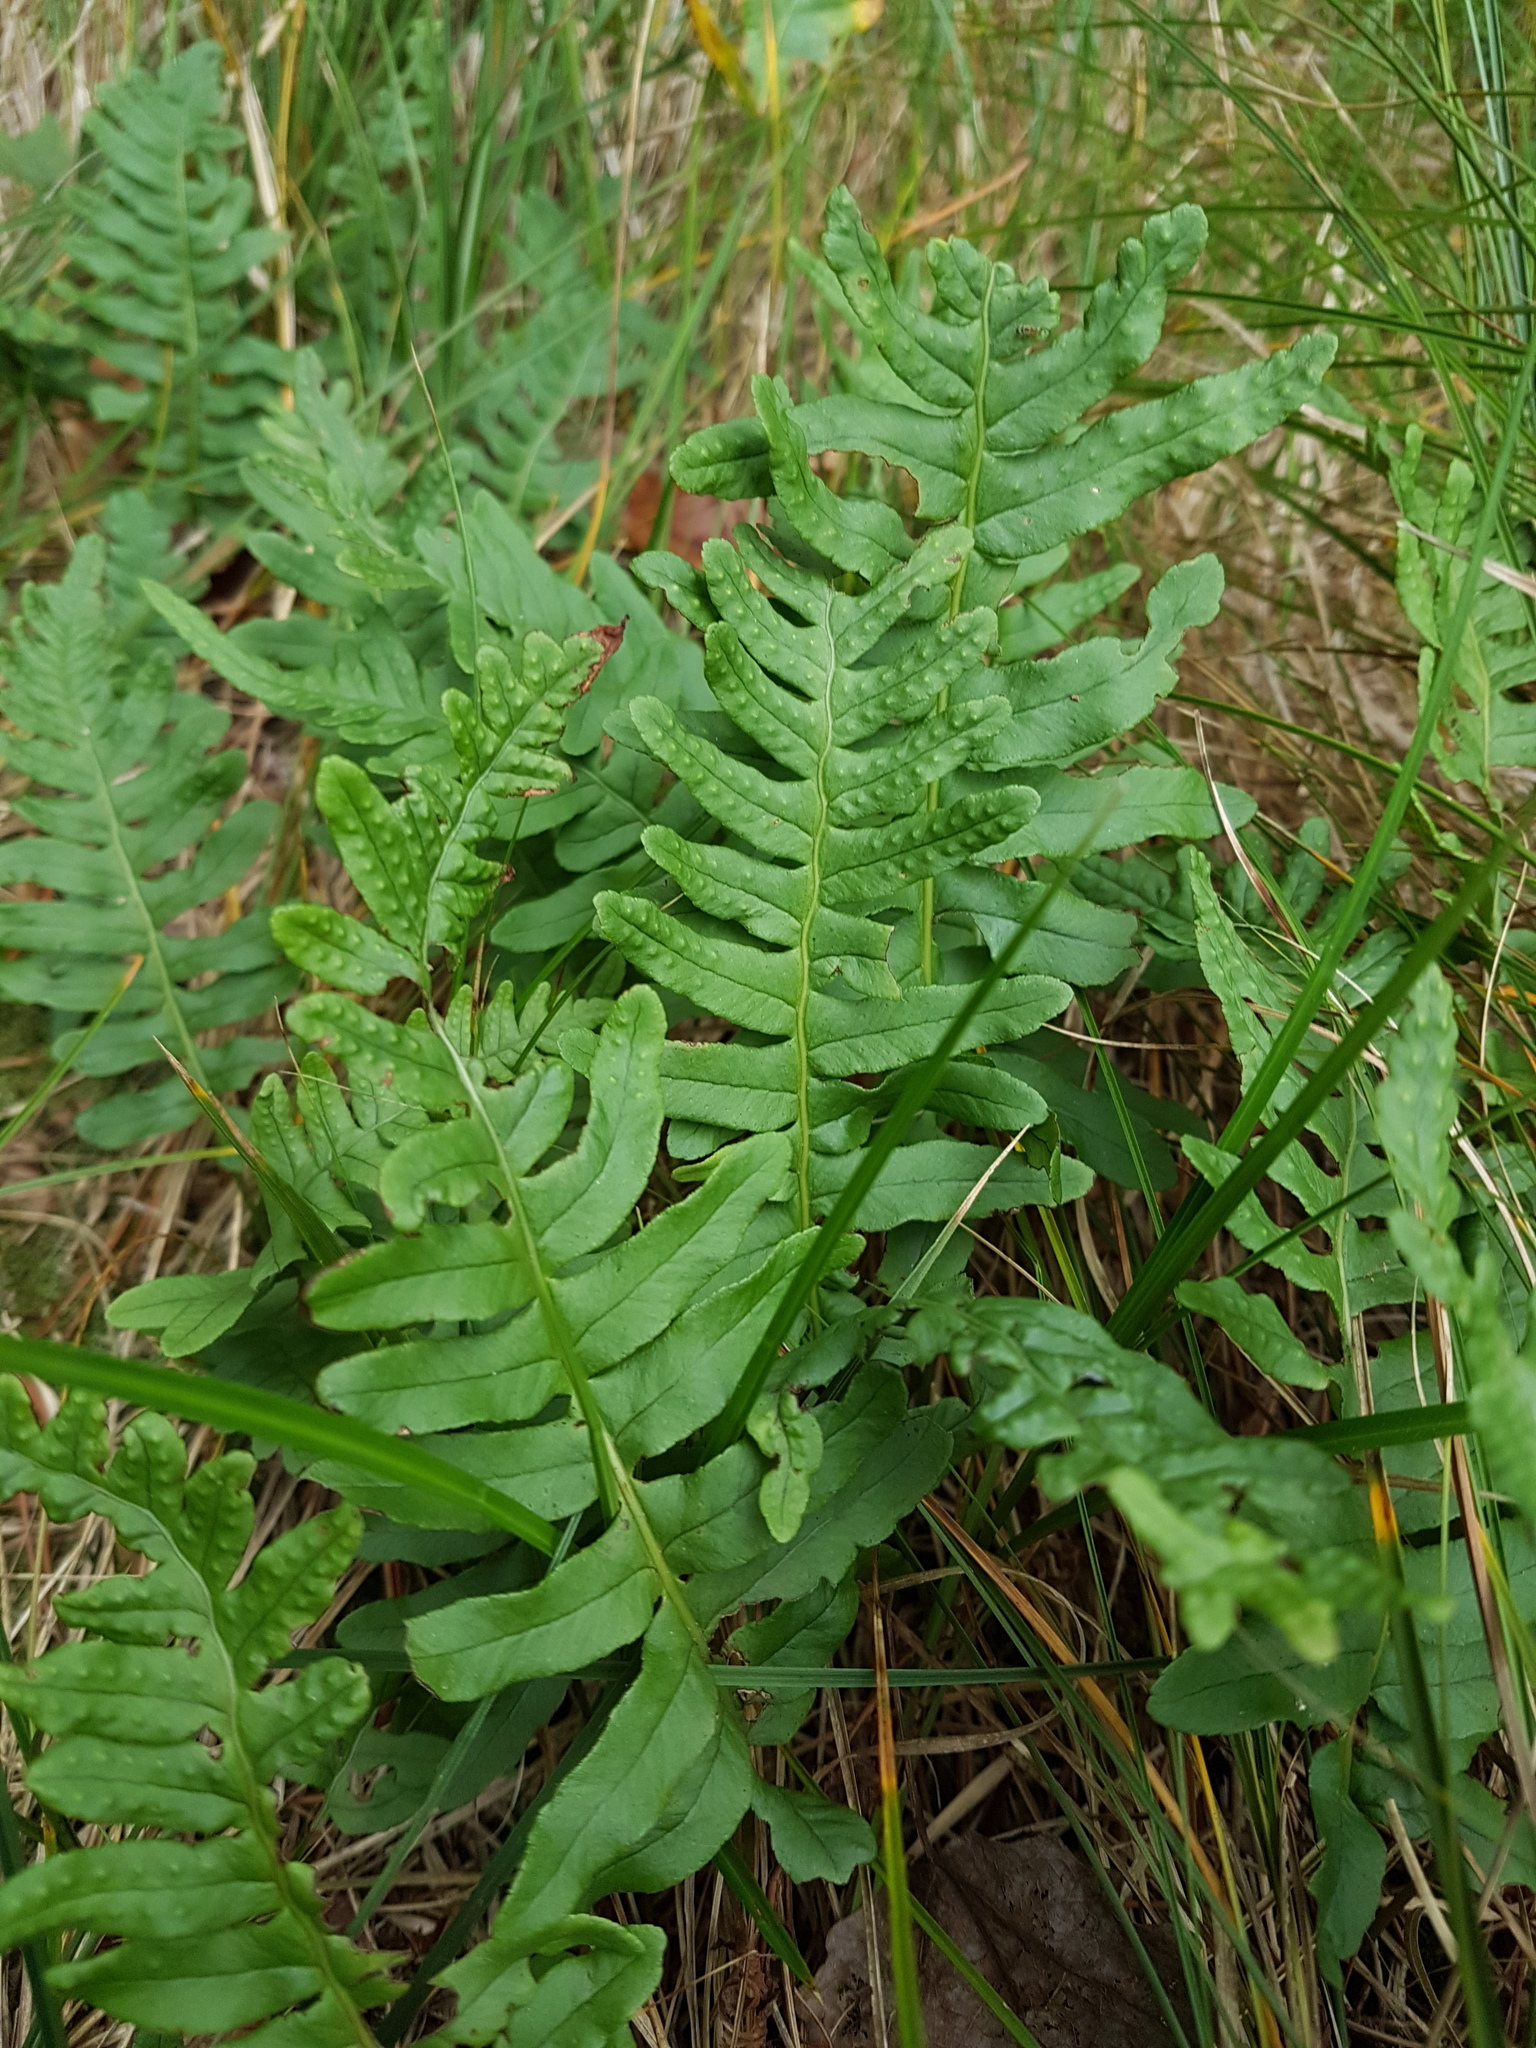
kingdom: Plantae
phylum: Tracheophyta
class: Polypodiopsida
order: Polypodiales
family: Polypodiaceae
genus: Polypodium
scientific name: Polypodium vulgare
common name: Common polypody
